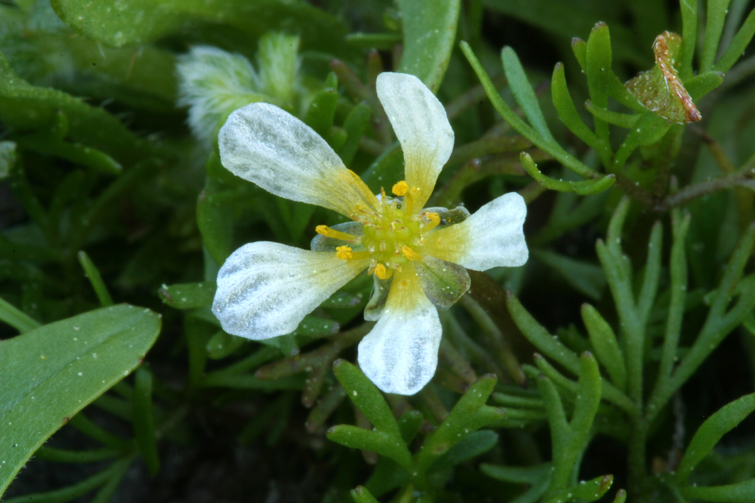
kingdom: Plantae
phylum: Tracheophyta
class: Magnoliopsida
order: Ranunculales
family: Ranunculaceae
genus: Ranunculus
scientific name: Ranunculus aquatilis
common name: Common water-crowfoot
